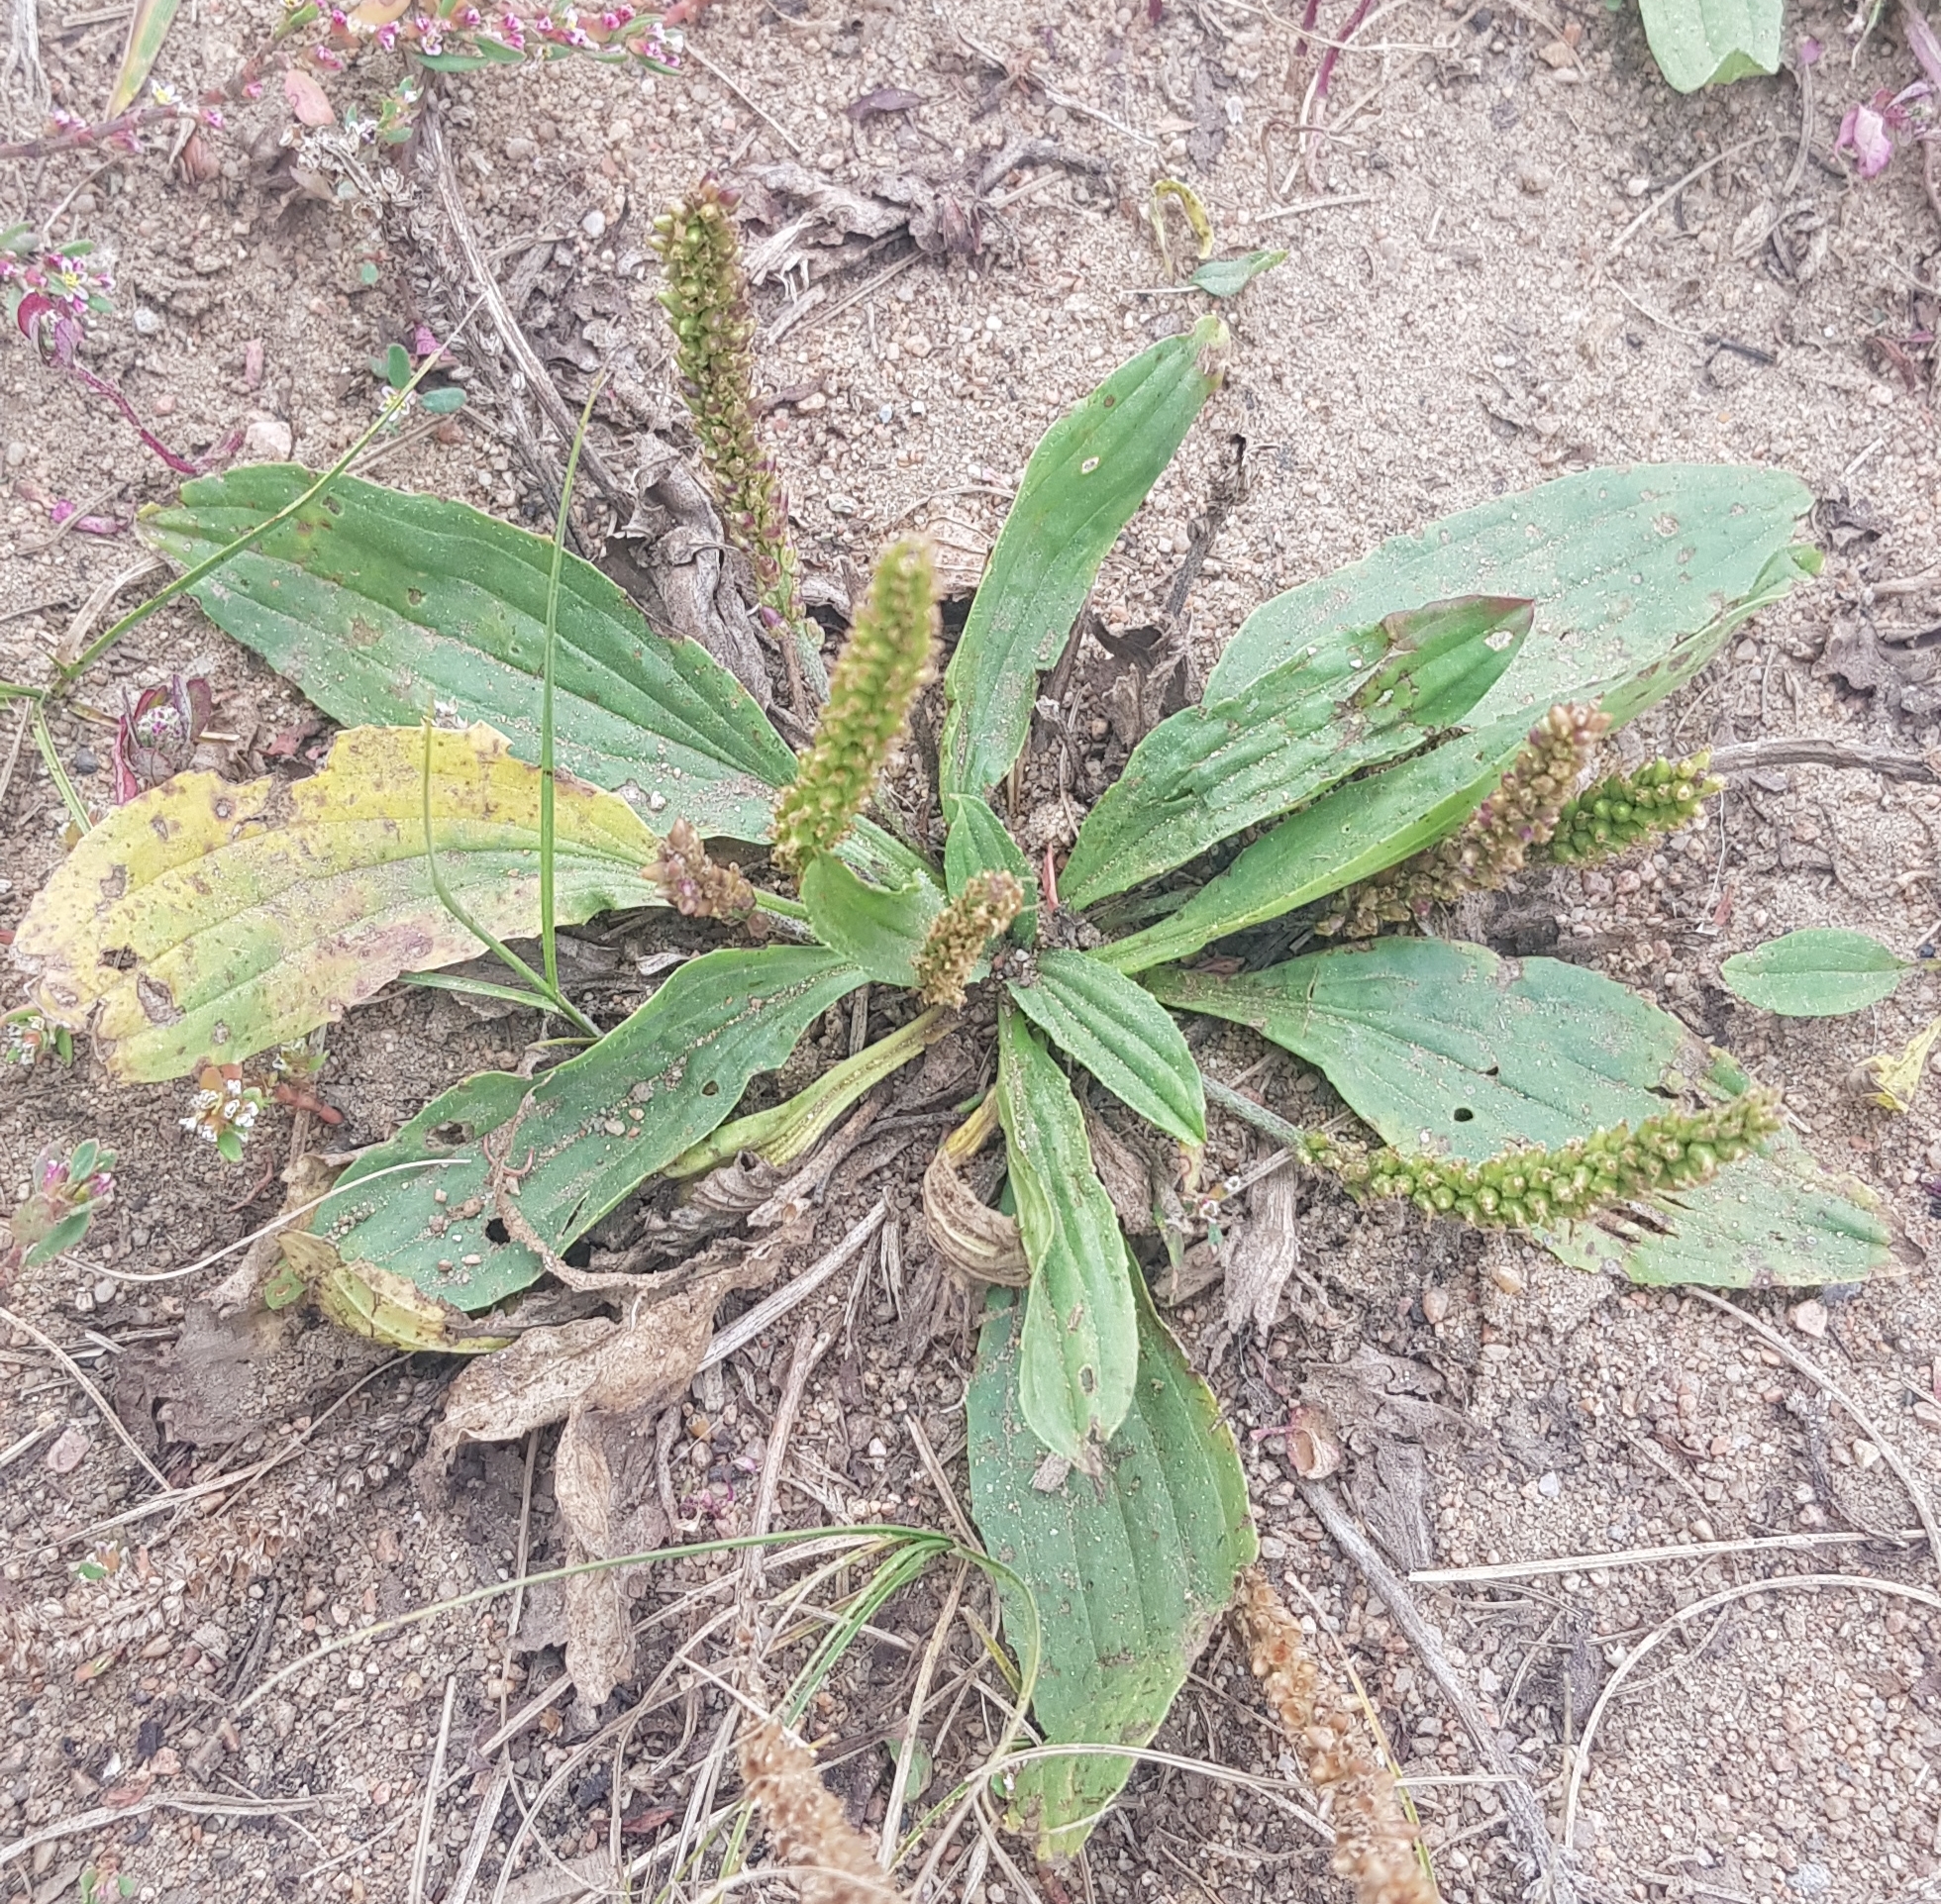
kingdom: Plantae
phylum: Tracheophyta
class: Magnoliopsida
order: Lamiales
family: Plantaginaceae
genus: Plantago
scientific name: Plantago depressa
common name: Depressed plantain
